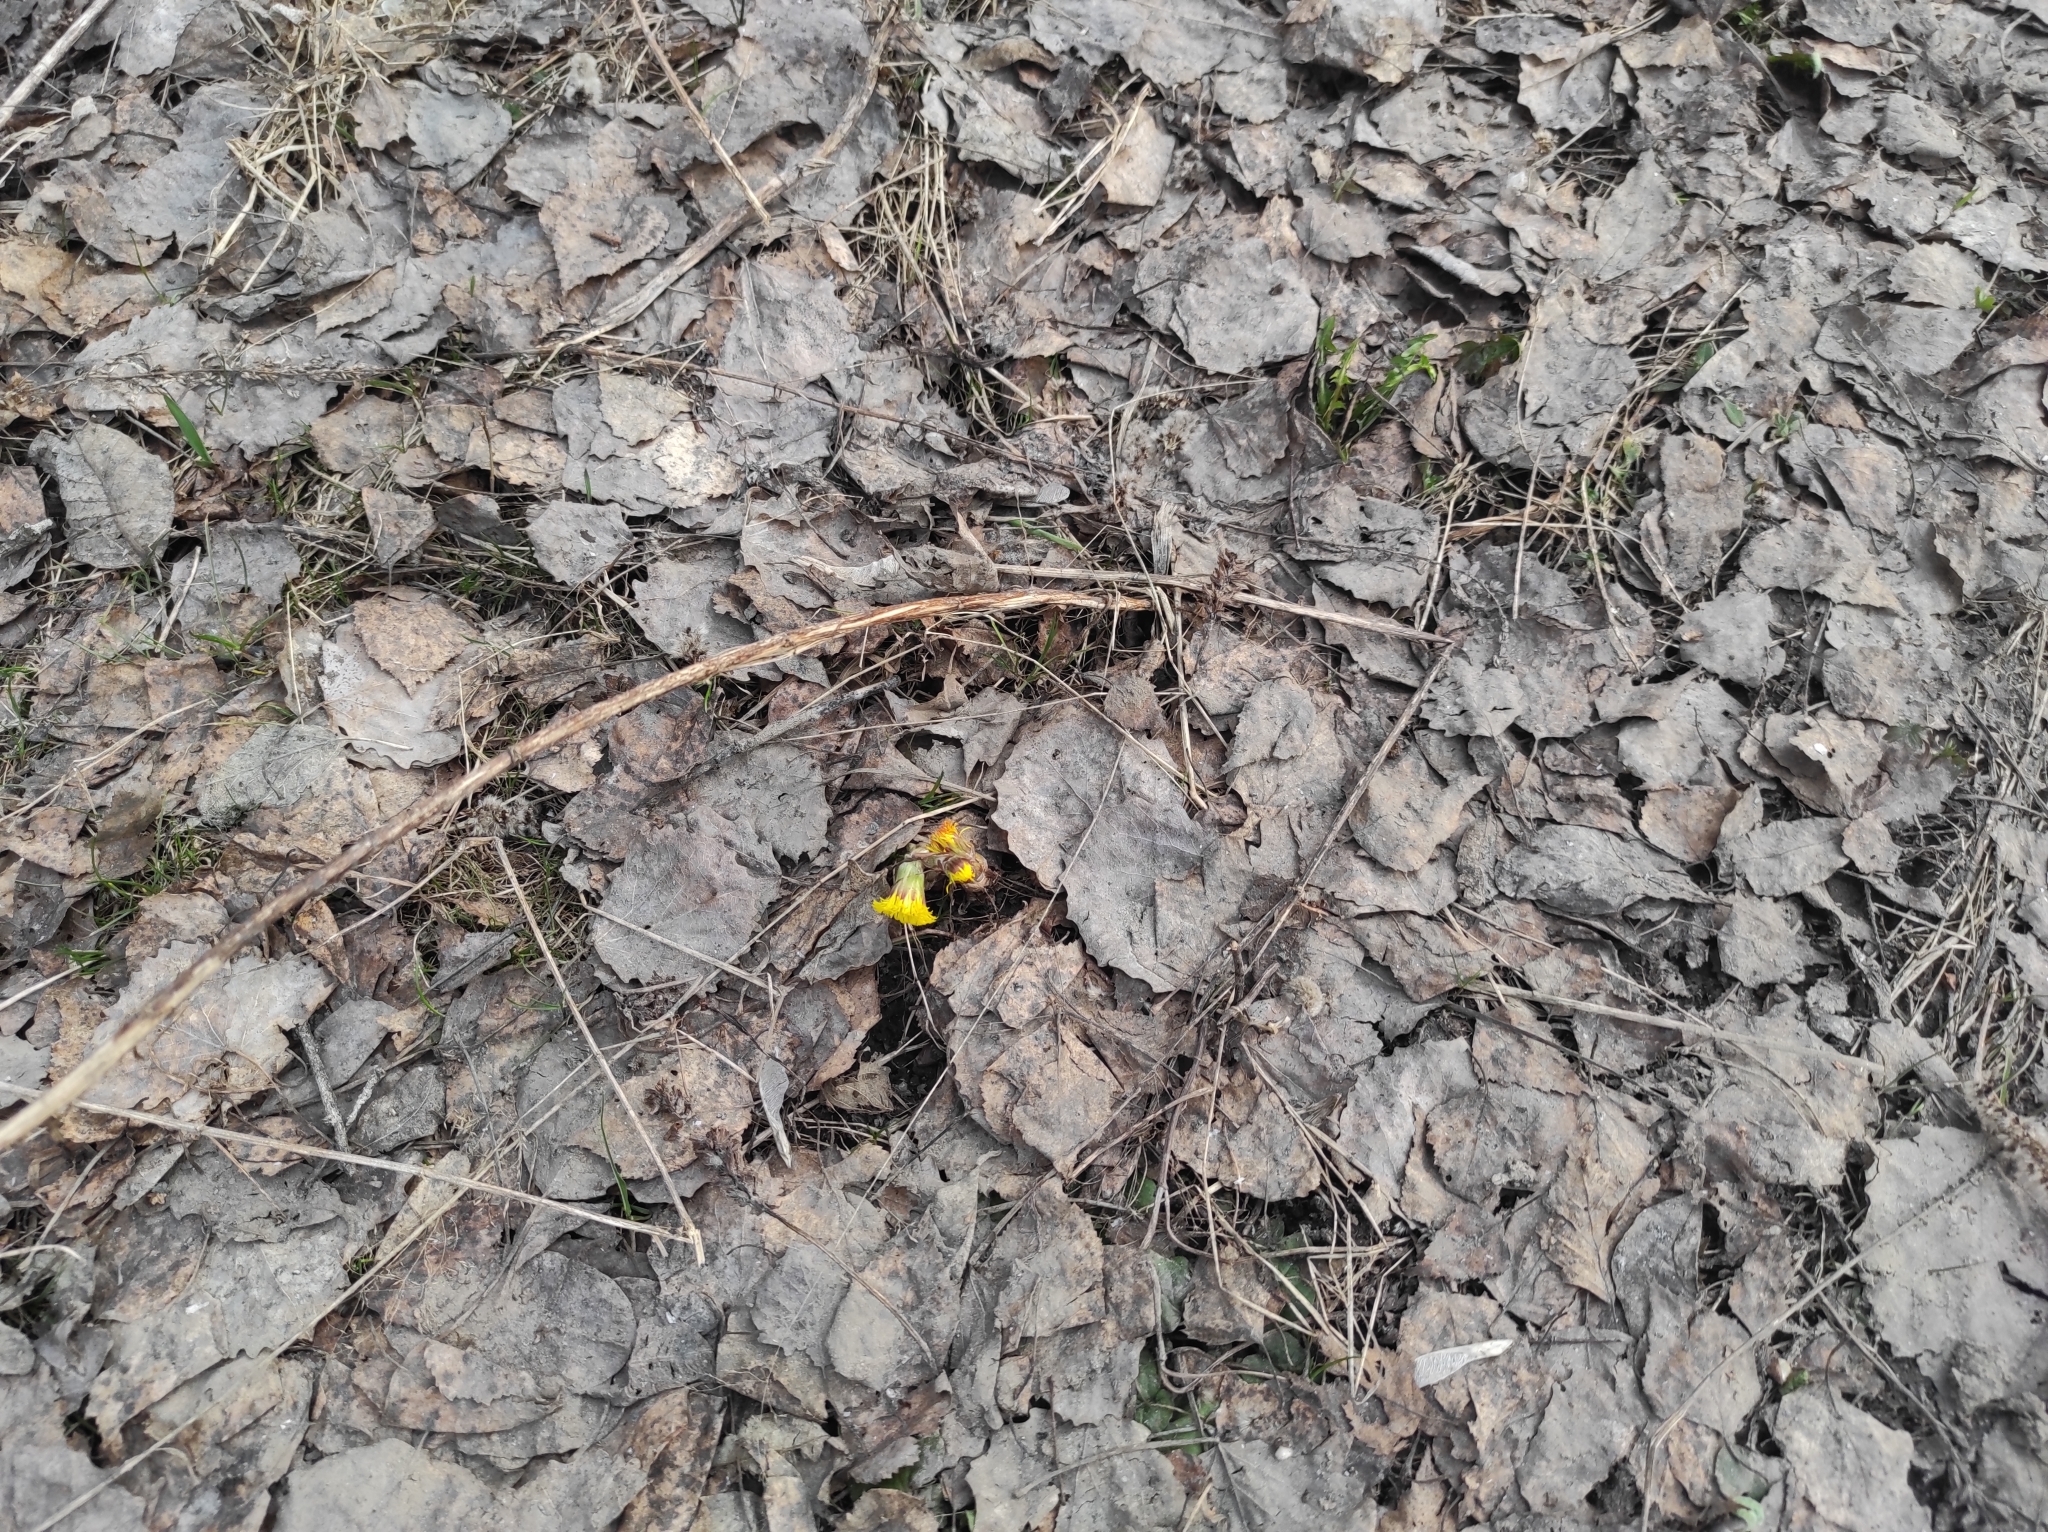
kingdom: Plantae
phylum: Tracheophyta
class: Magnoliopsida
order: Asterales
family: Asteraceae
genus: Tussilago
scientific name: Tussilago farfara
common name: Coltsfoot
